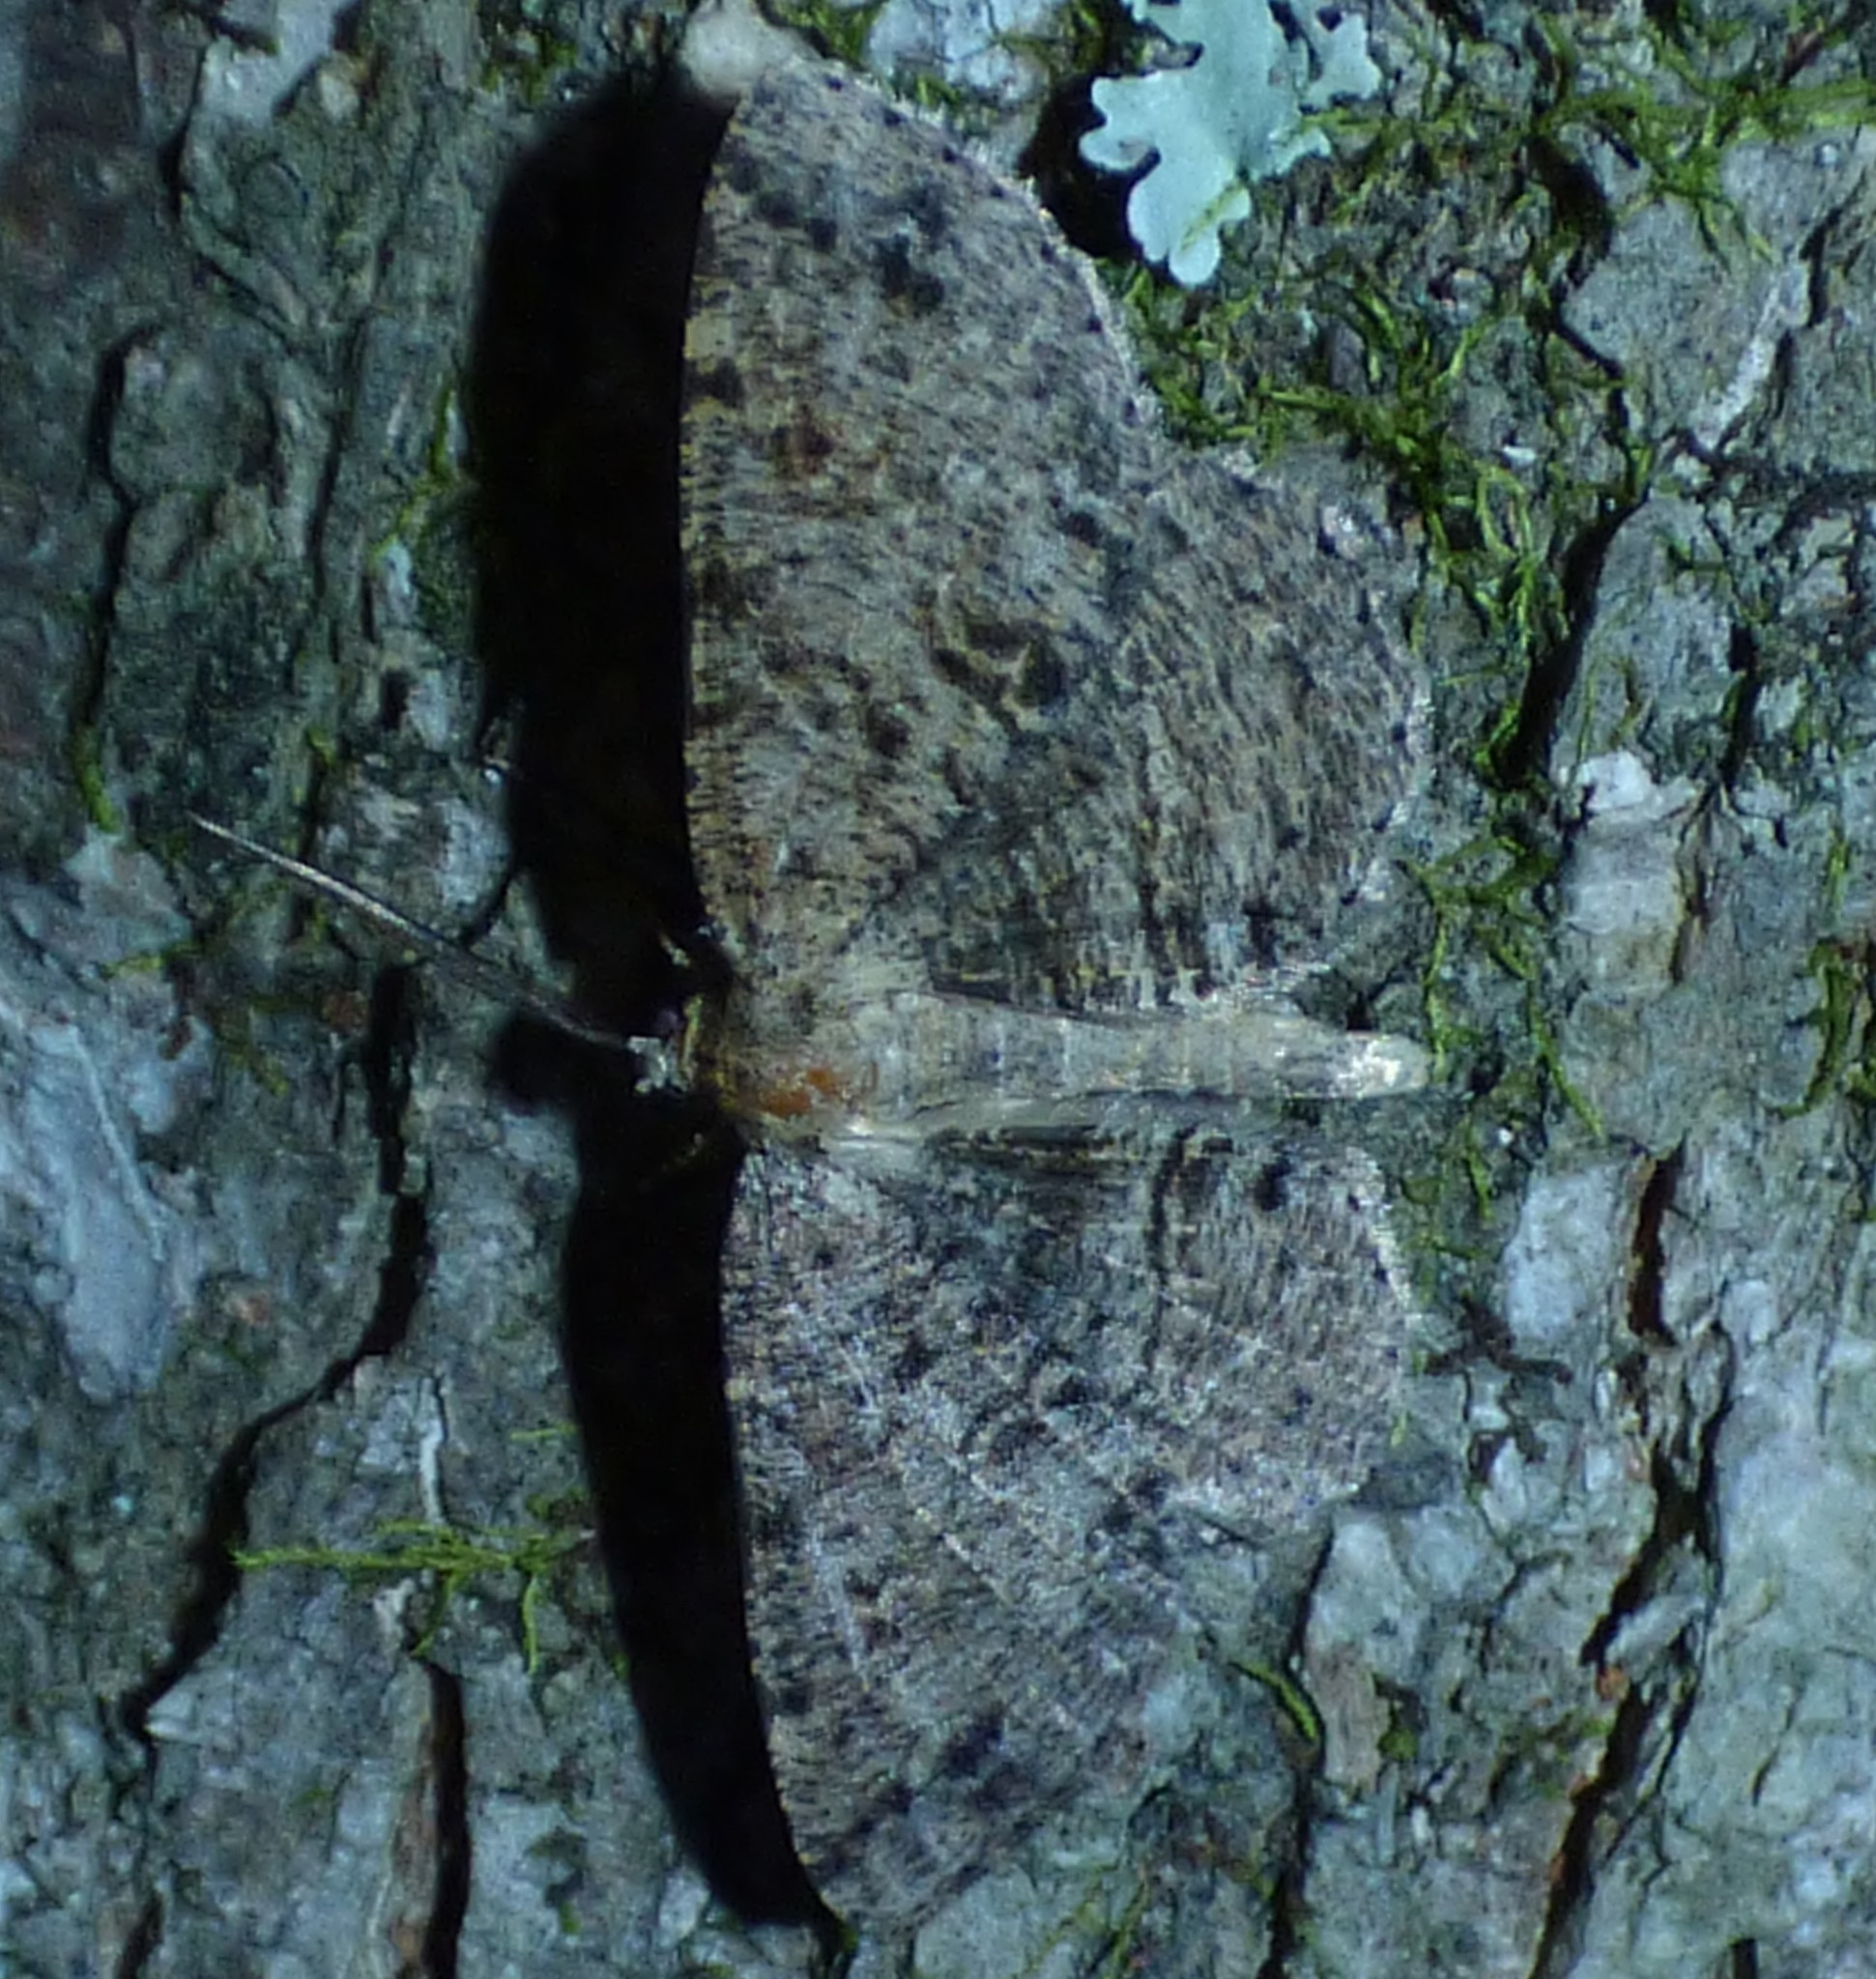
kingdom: Animalia
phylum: Arthropoda
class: Insecta
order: Lepidoptera
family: Geometridae
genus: Melanolophia
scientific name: Melanolophia canadaria
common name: Canadian melanolophia
